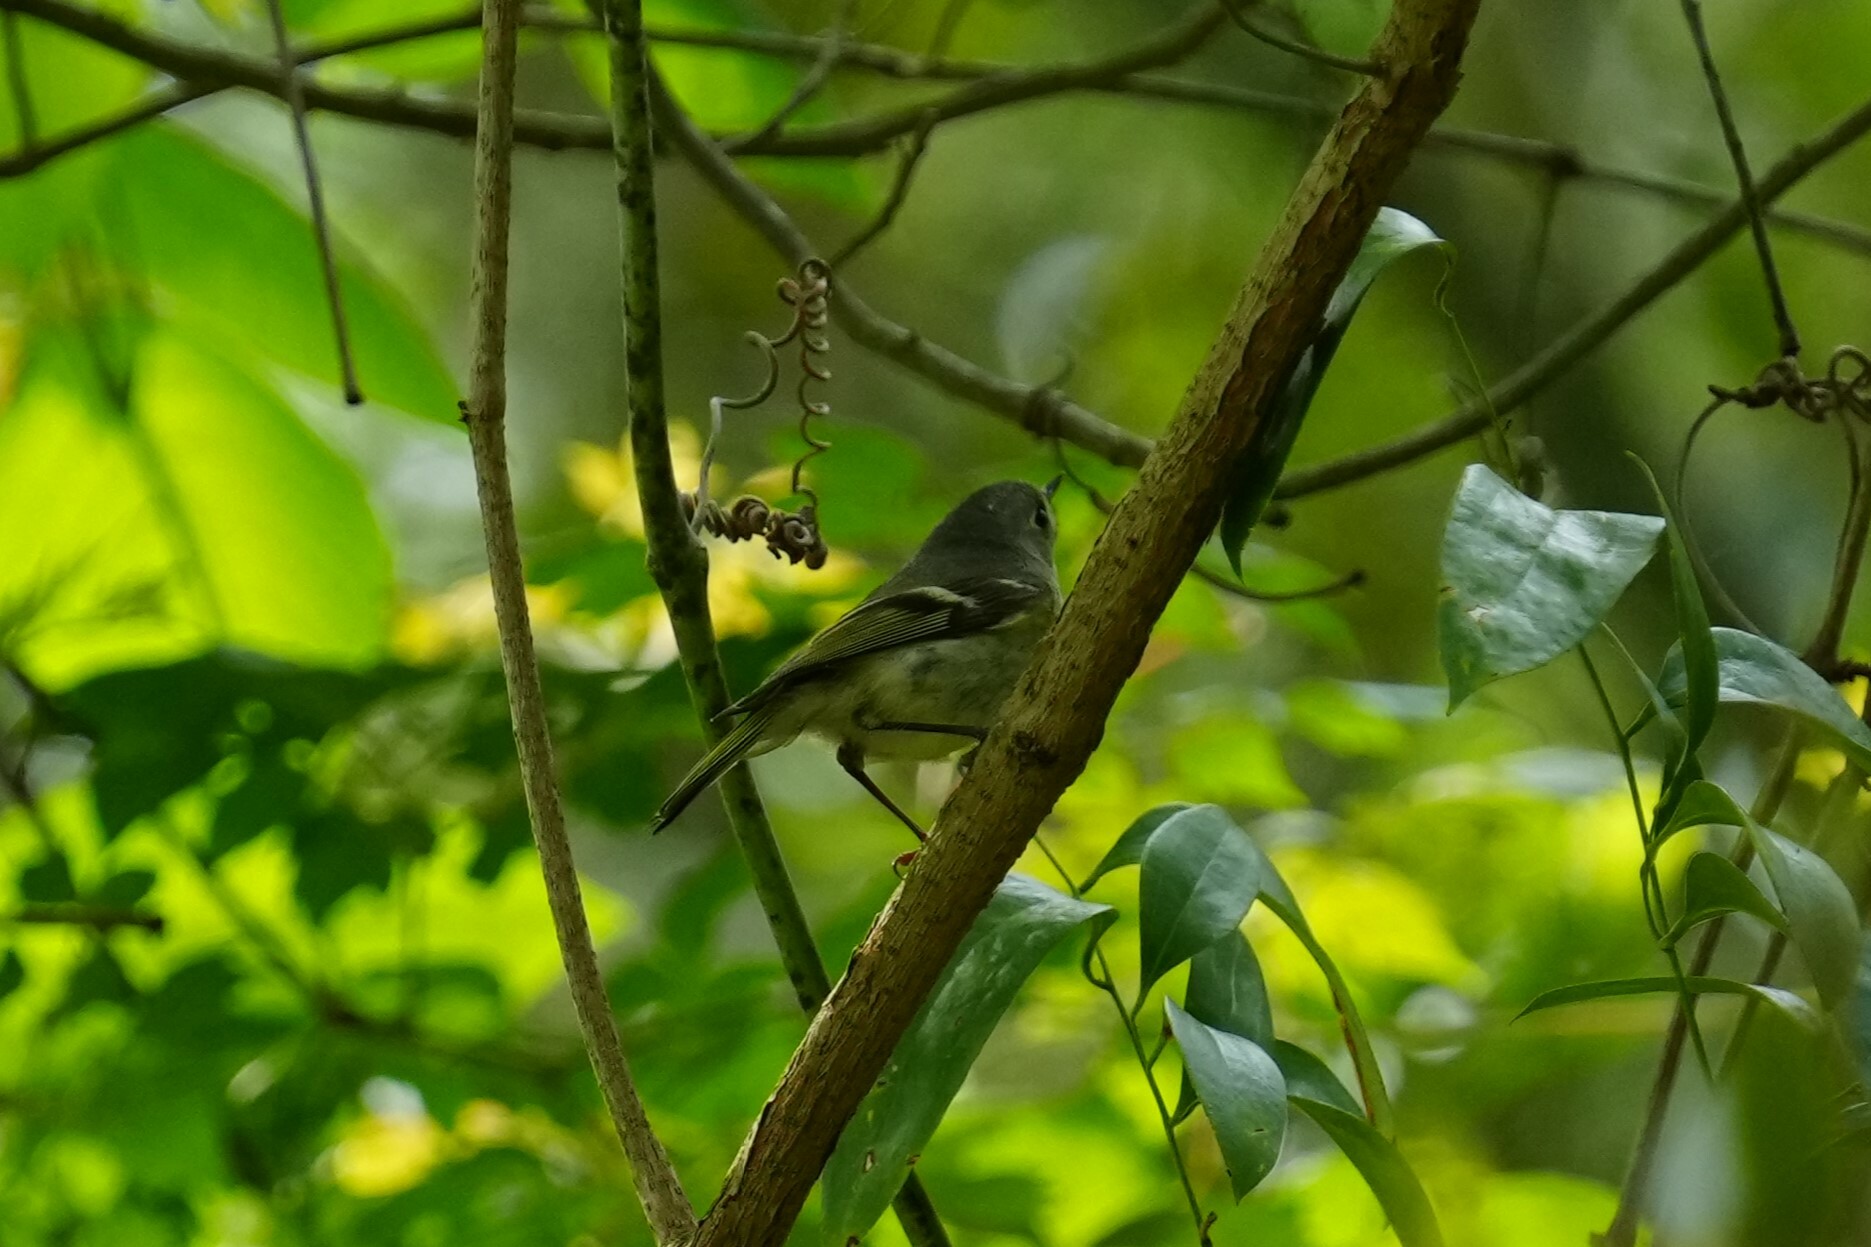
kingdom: Animalia
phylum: Chordata
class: Aves
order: Passeriformes
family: Regulidae
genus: Regulus
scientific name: Regulus calendula
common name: Ruby-crowned kinglet
